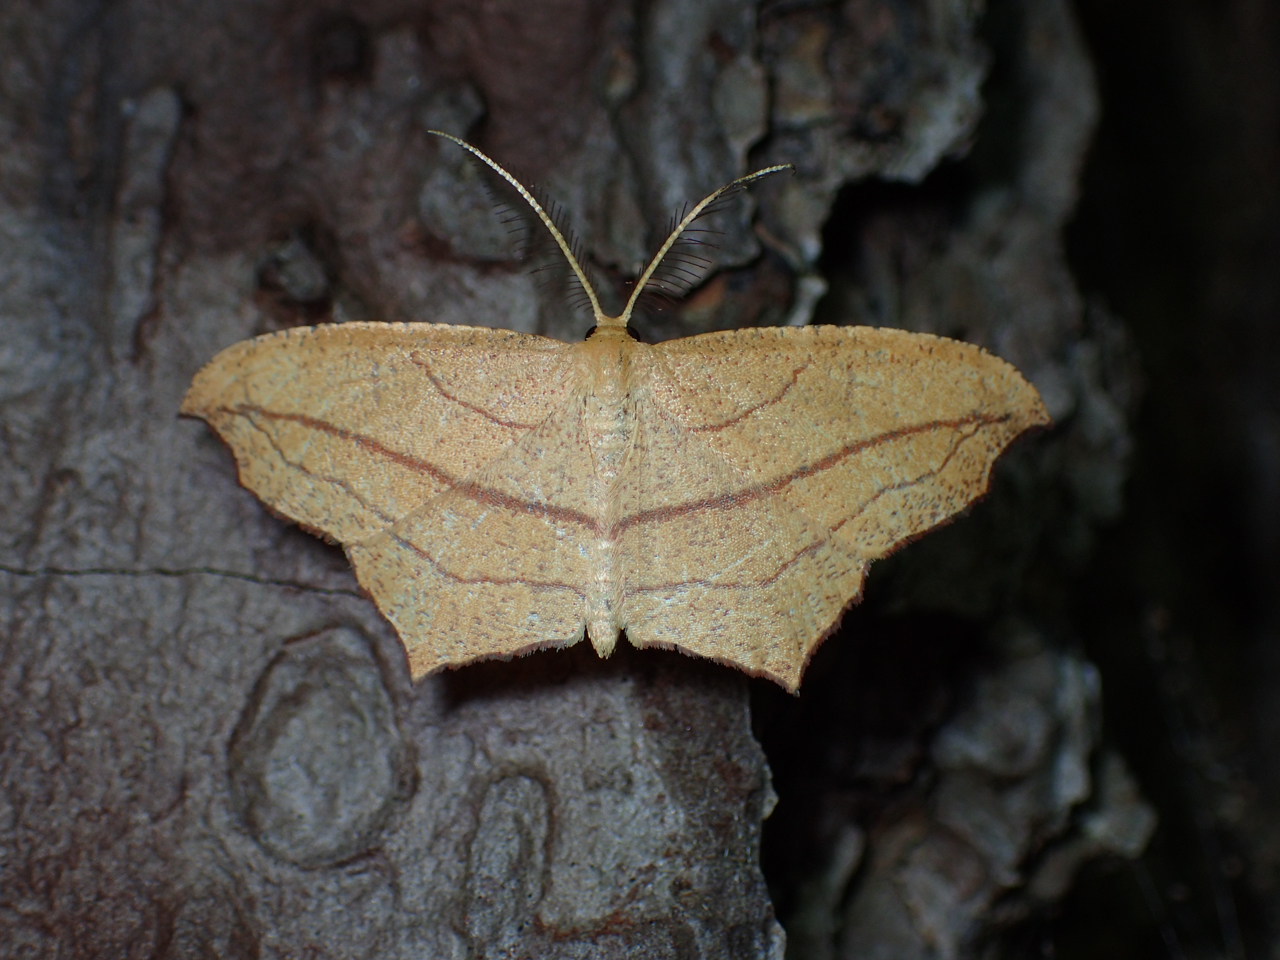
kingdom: Animalia
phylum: Arthropoda
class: Insecta
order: Lepidoptera
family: Geometridae
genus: Timandra
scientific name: Timandra amaturaria
